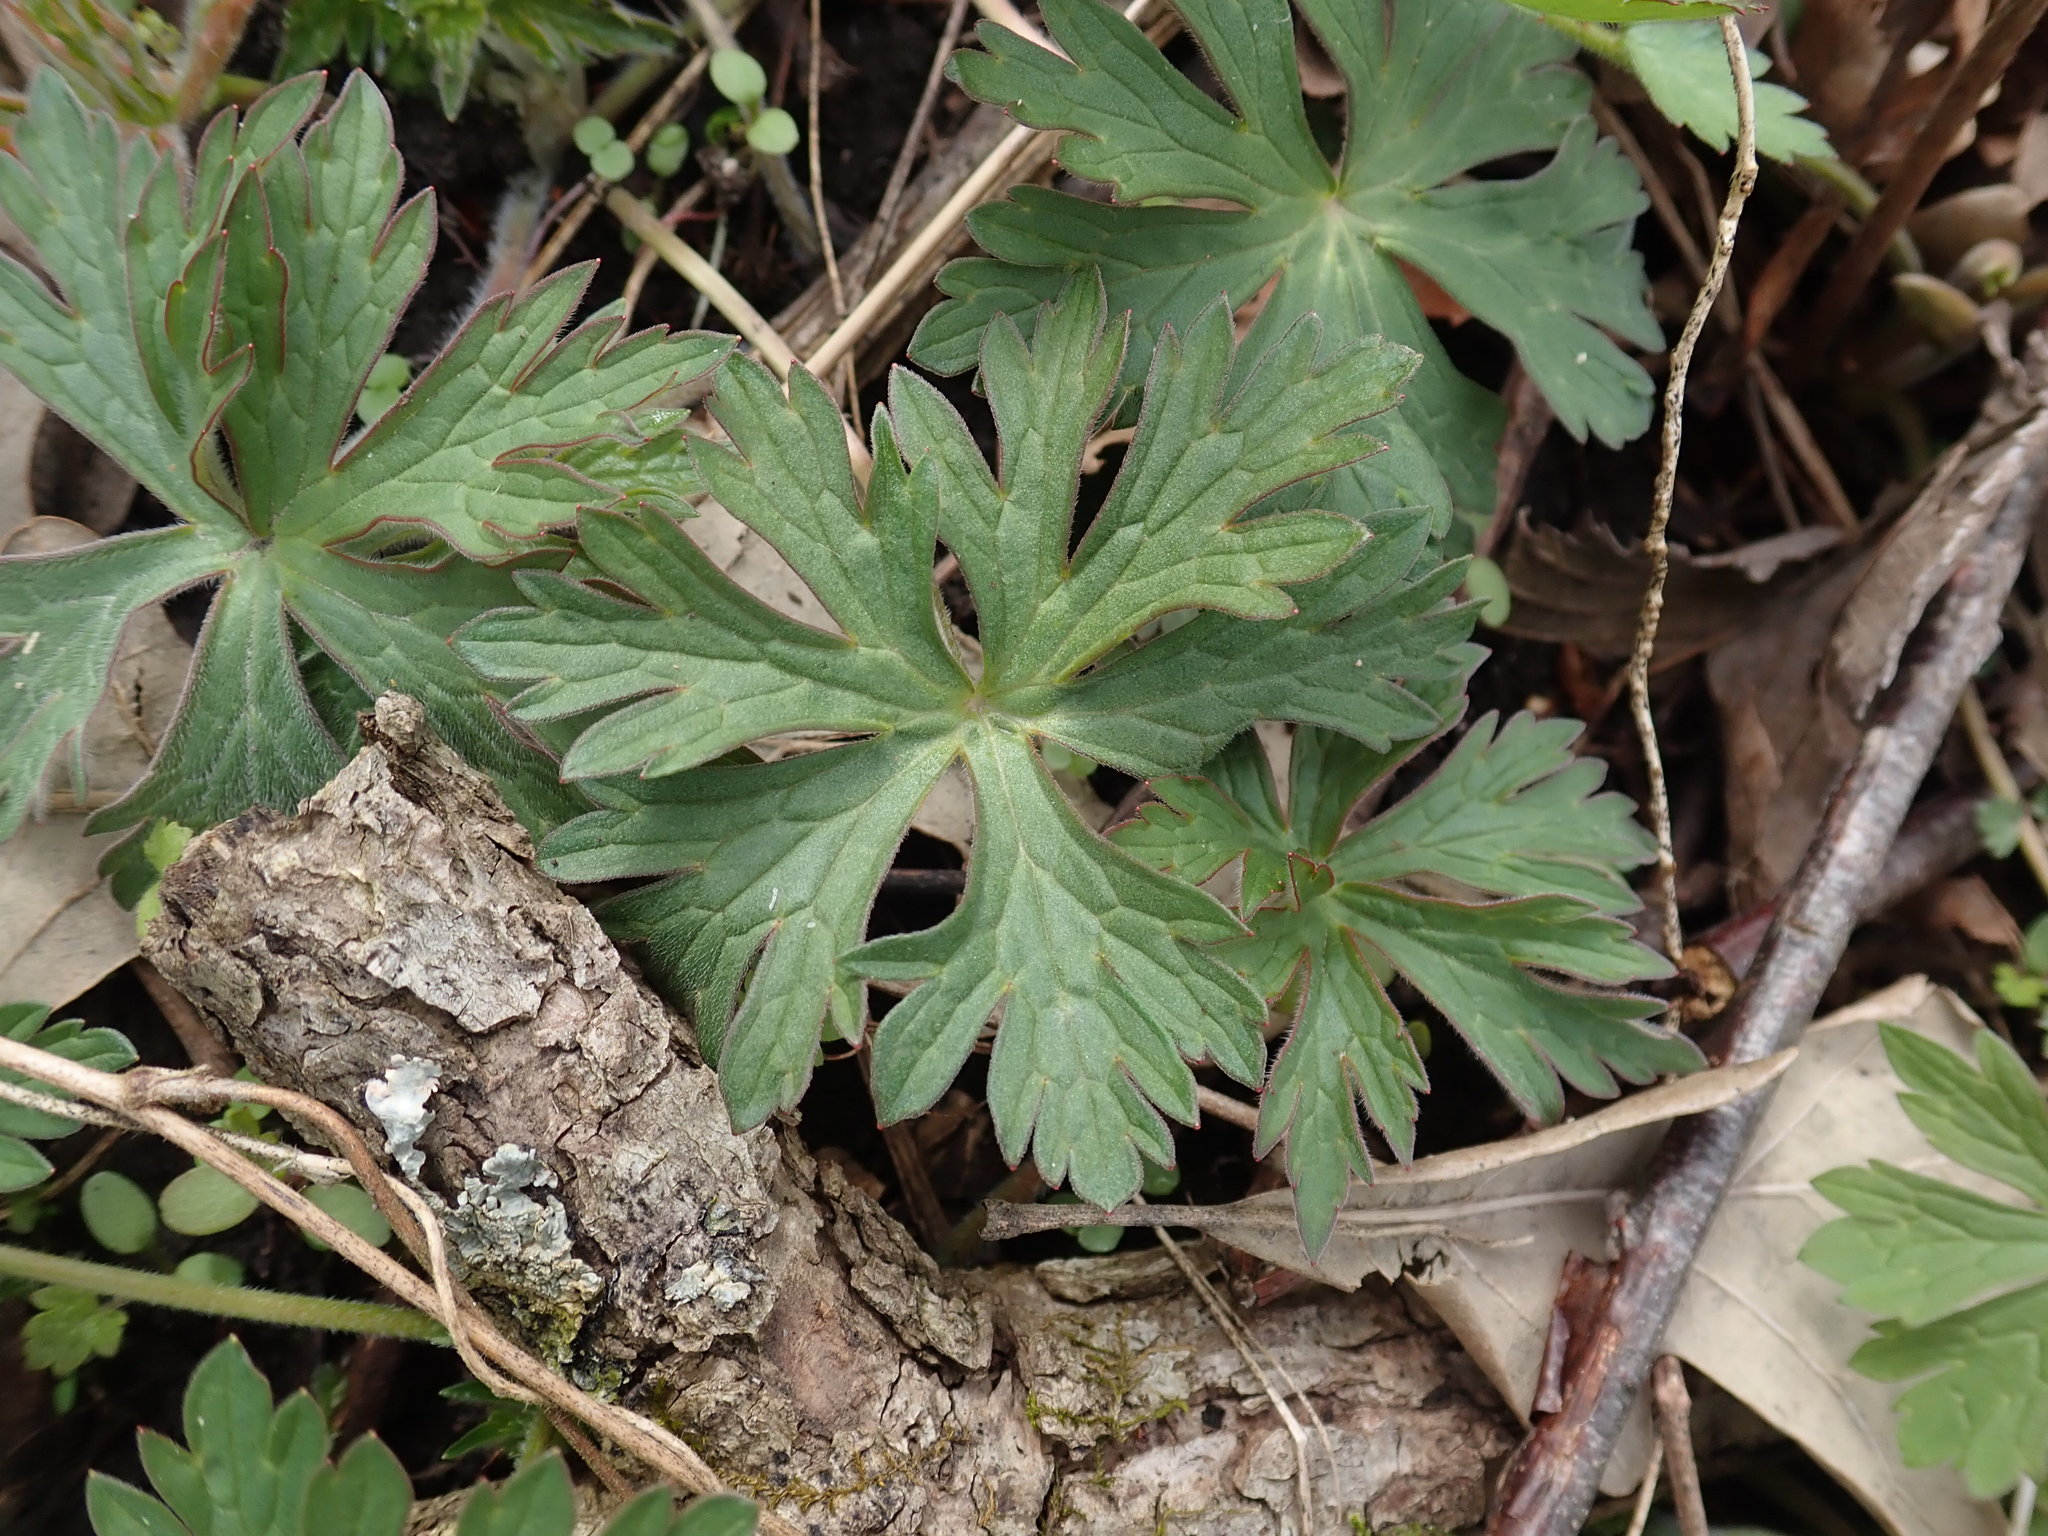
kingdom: Plantae
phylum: Tracheophyta
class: Magnoliopsida
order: Geraniales
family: Geraniaceae
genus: Geranium
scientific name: Geranium maculatum
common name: Spotted geranium
